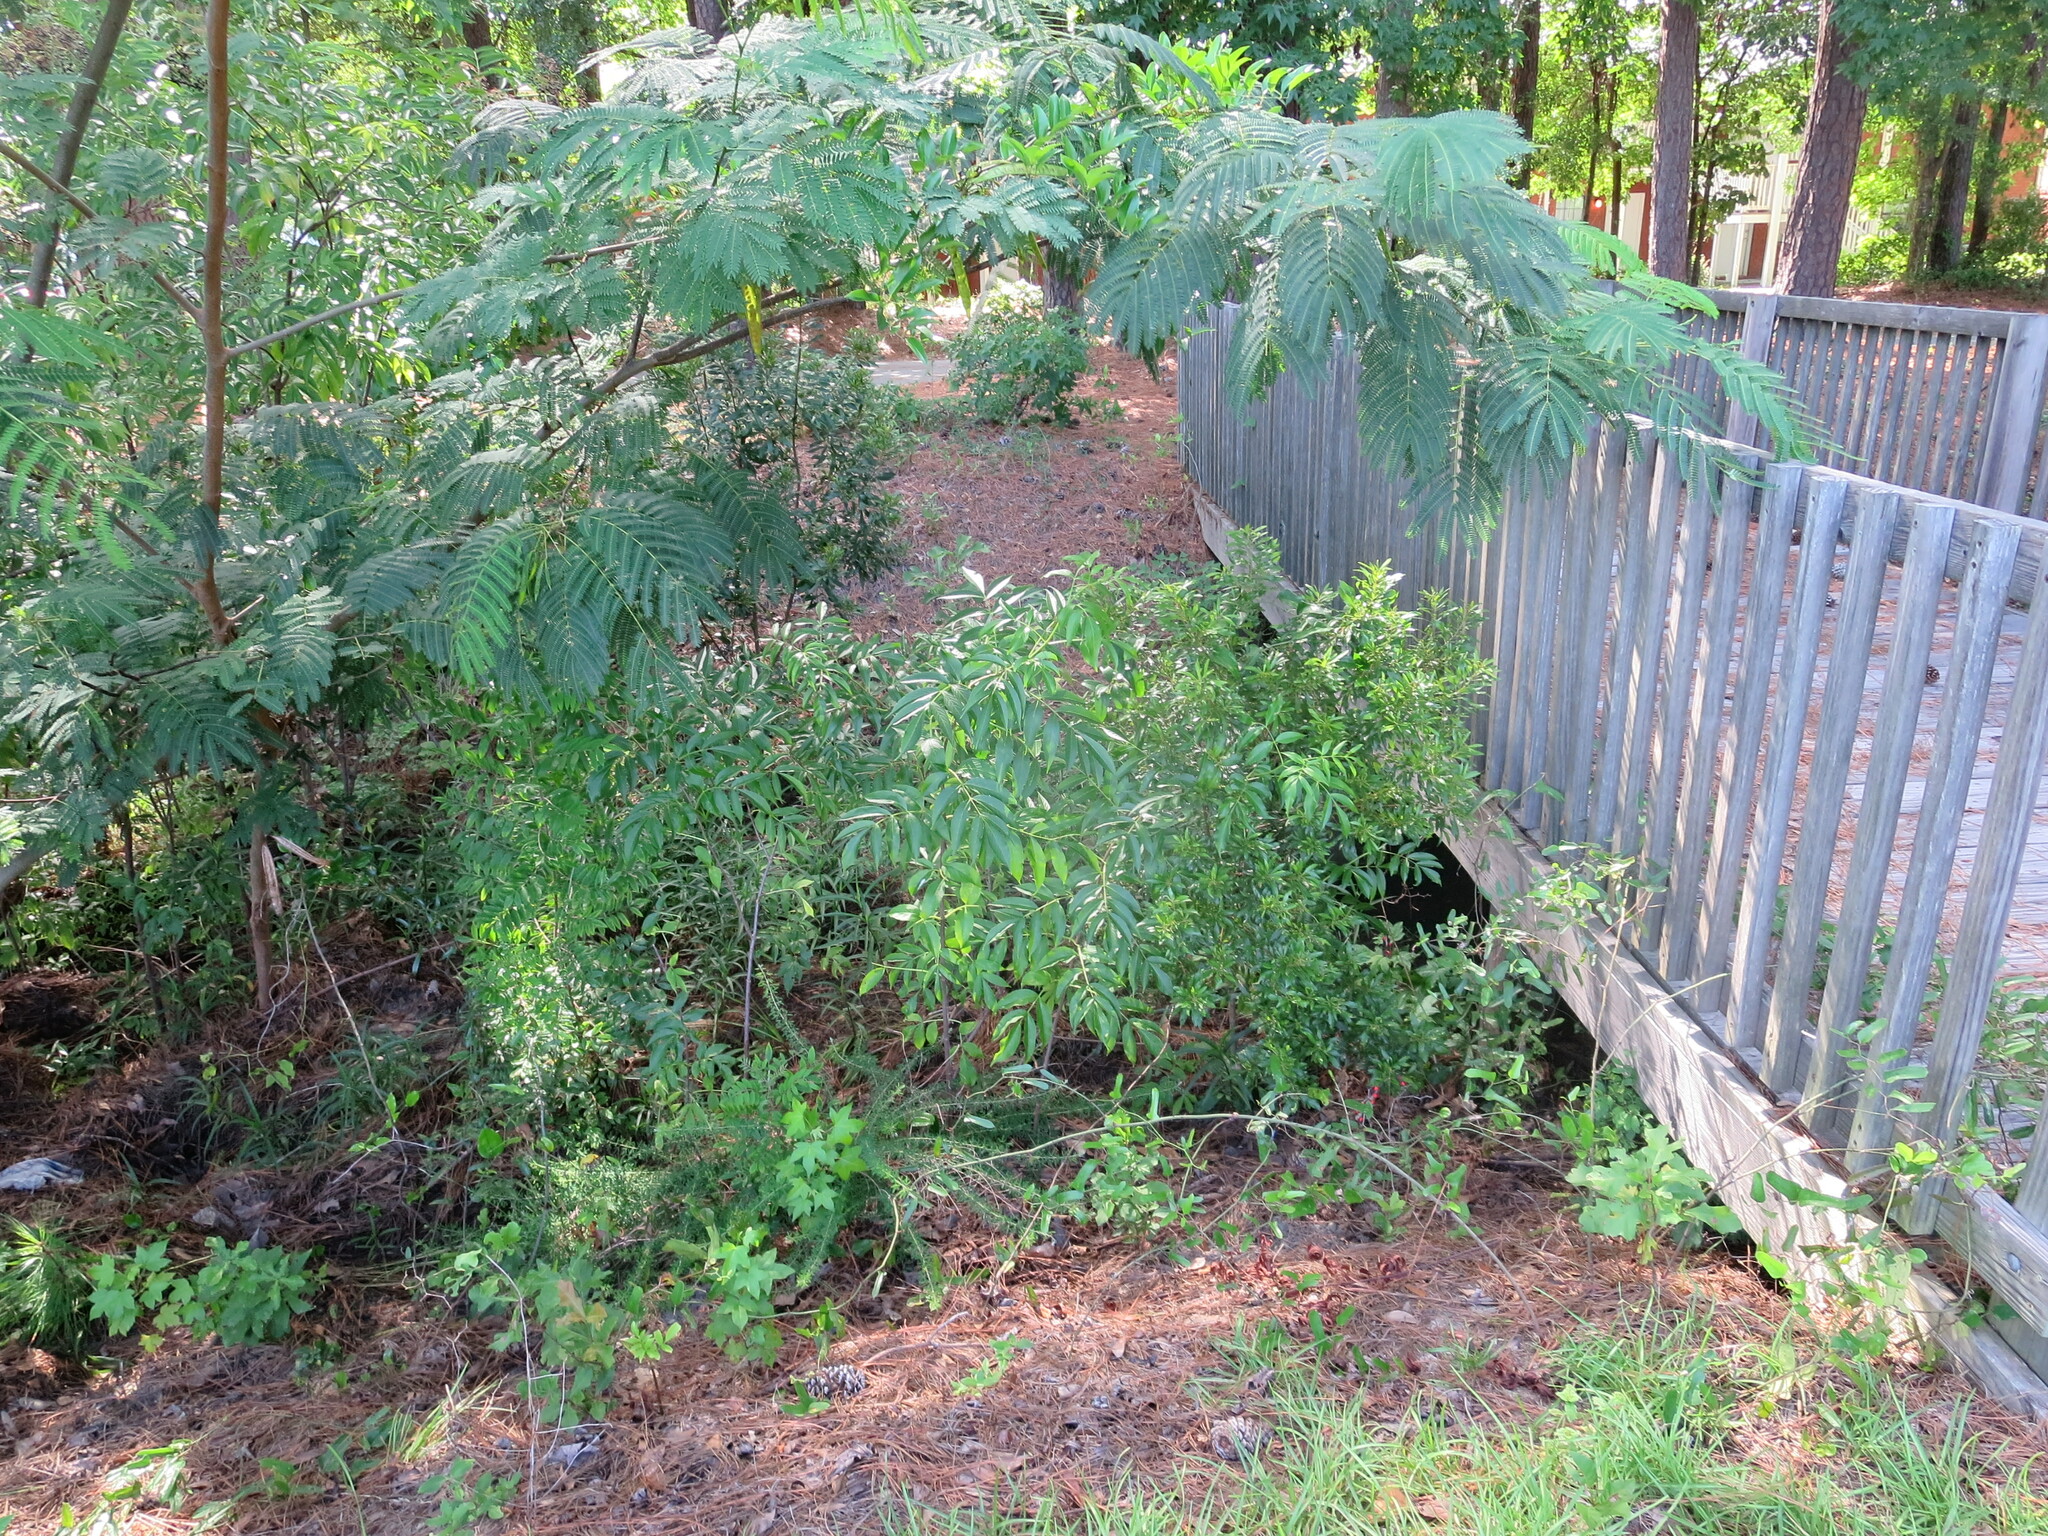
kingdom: Plantae
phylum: Tracheophyta
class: Magnoliopsida
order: Dipsacales
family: Viburnaceae
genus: Sambucus
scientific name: Sambucus canadensis
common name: American elder
